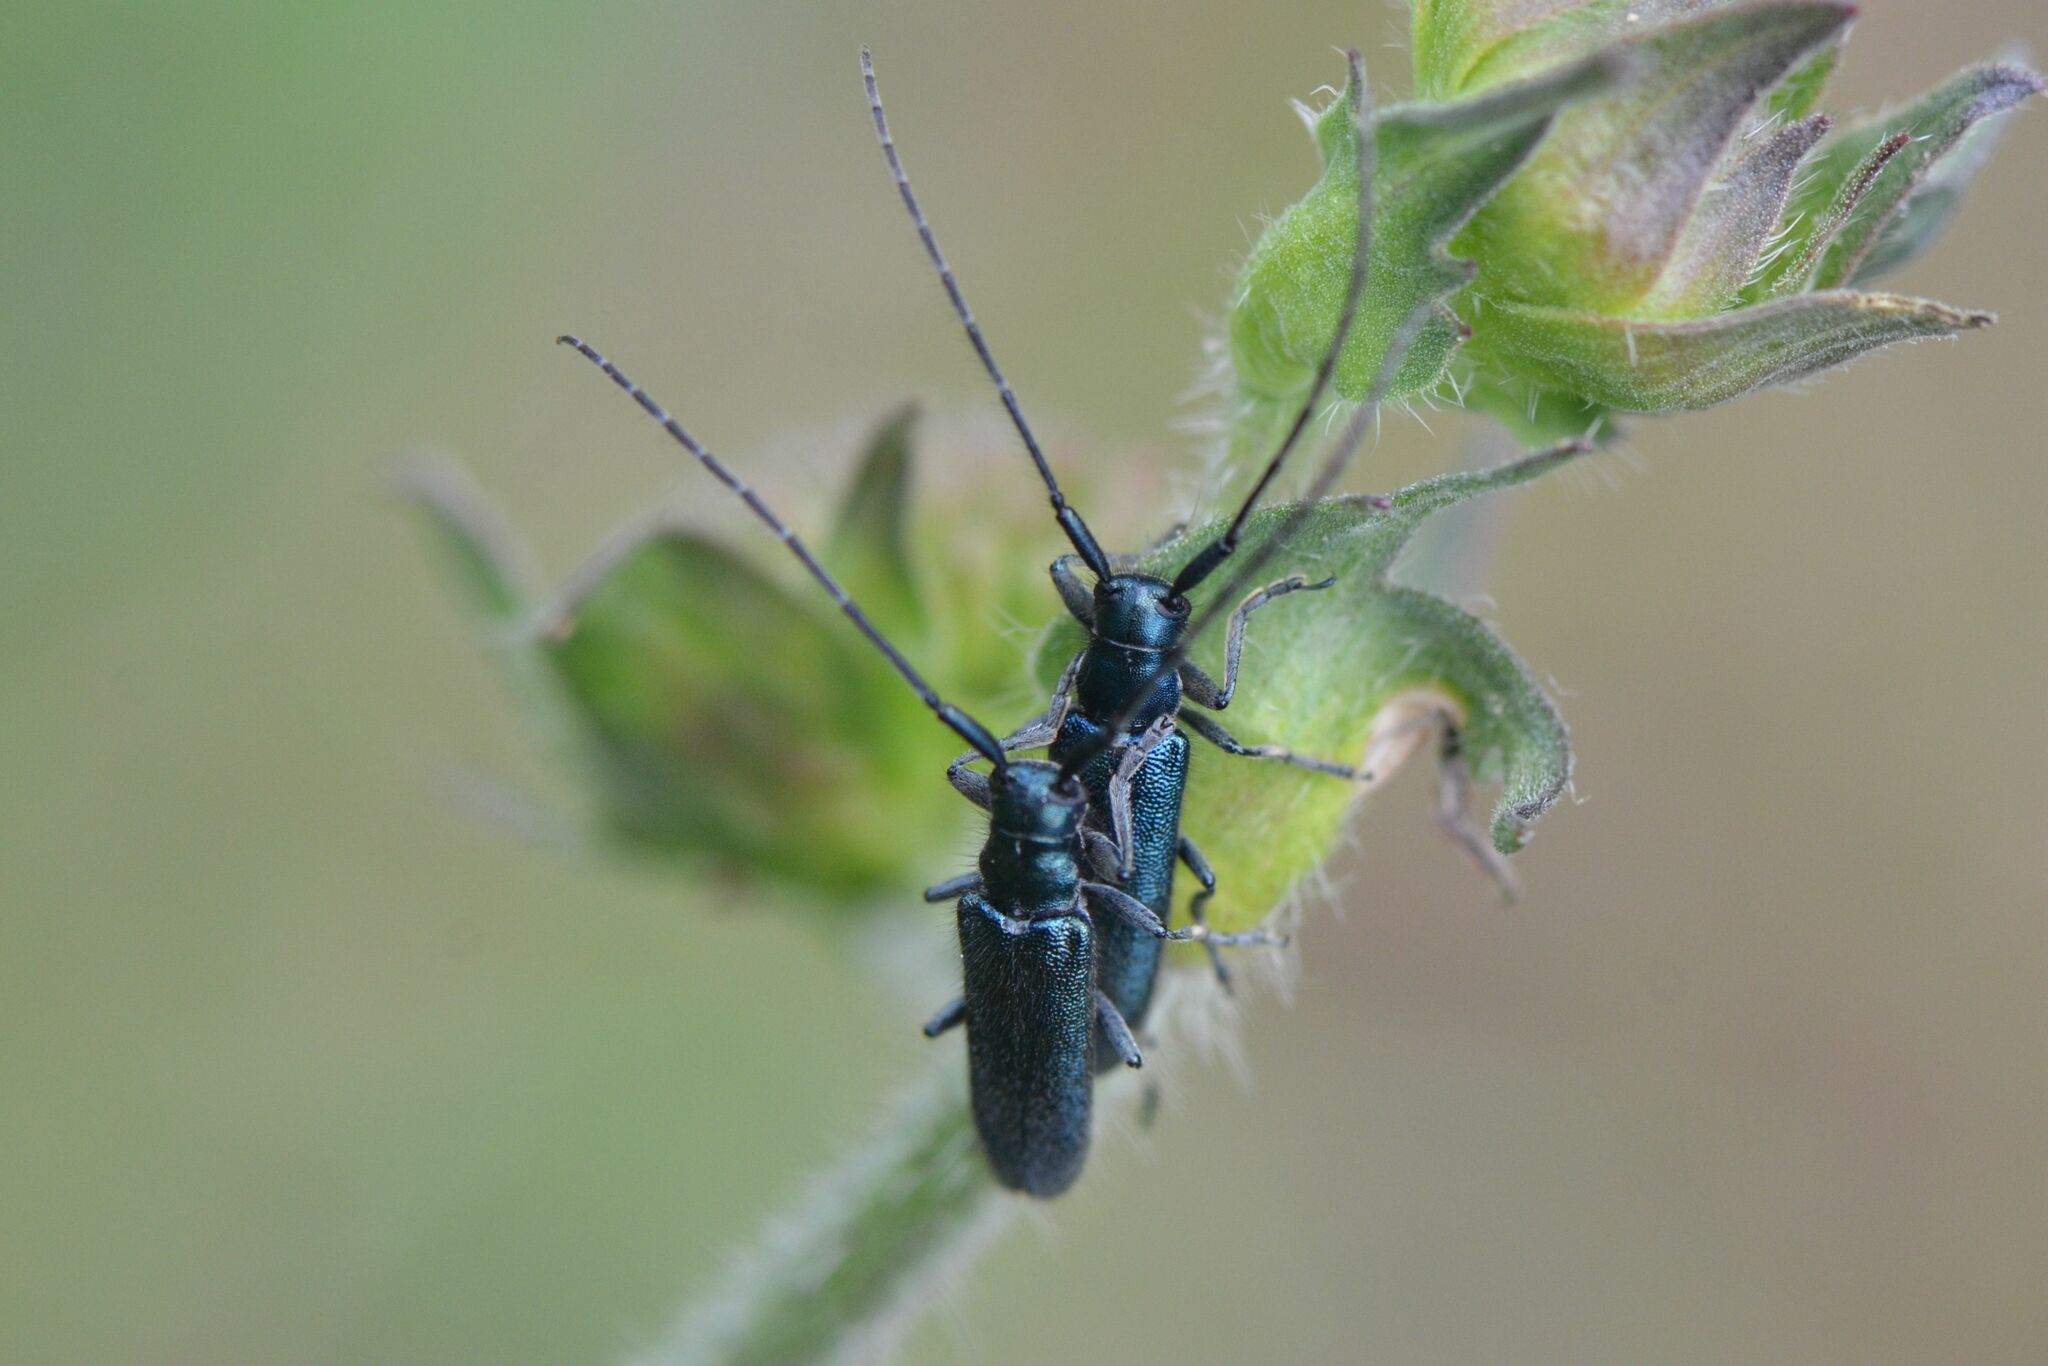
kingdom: Animalia
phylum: Arthropoda
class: Insecta
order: Coleoptera
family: Cerambycidae
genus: Agapanthia
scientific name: Agapanthia intermedia
